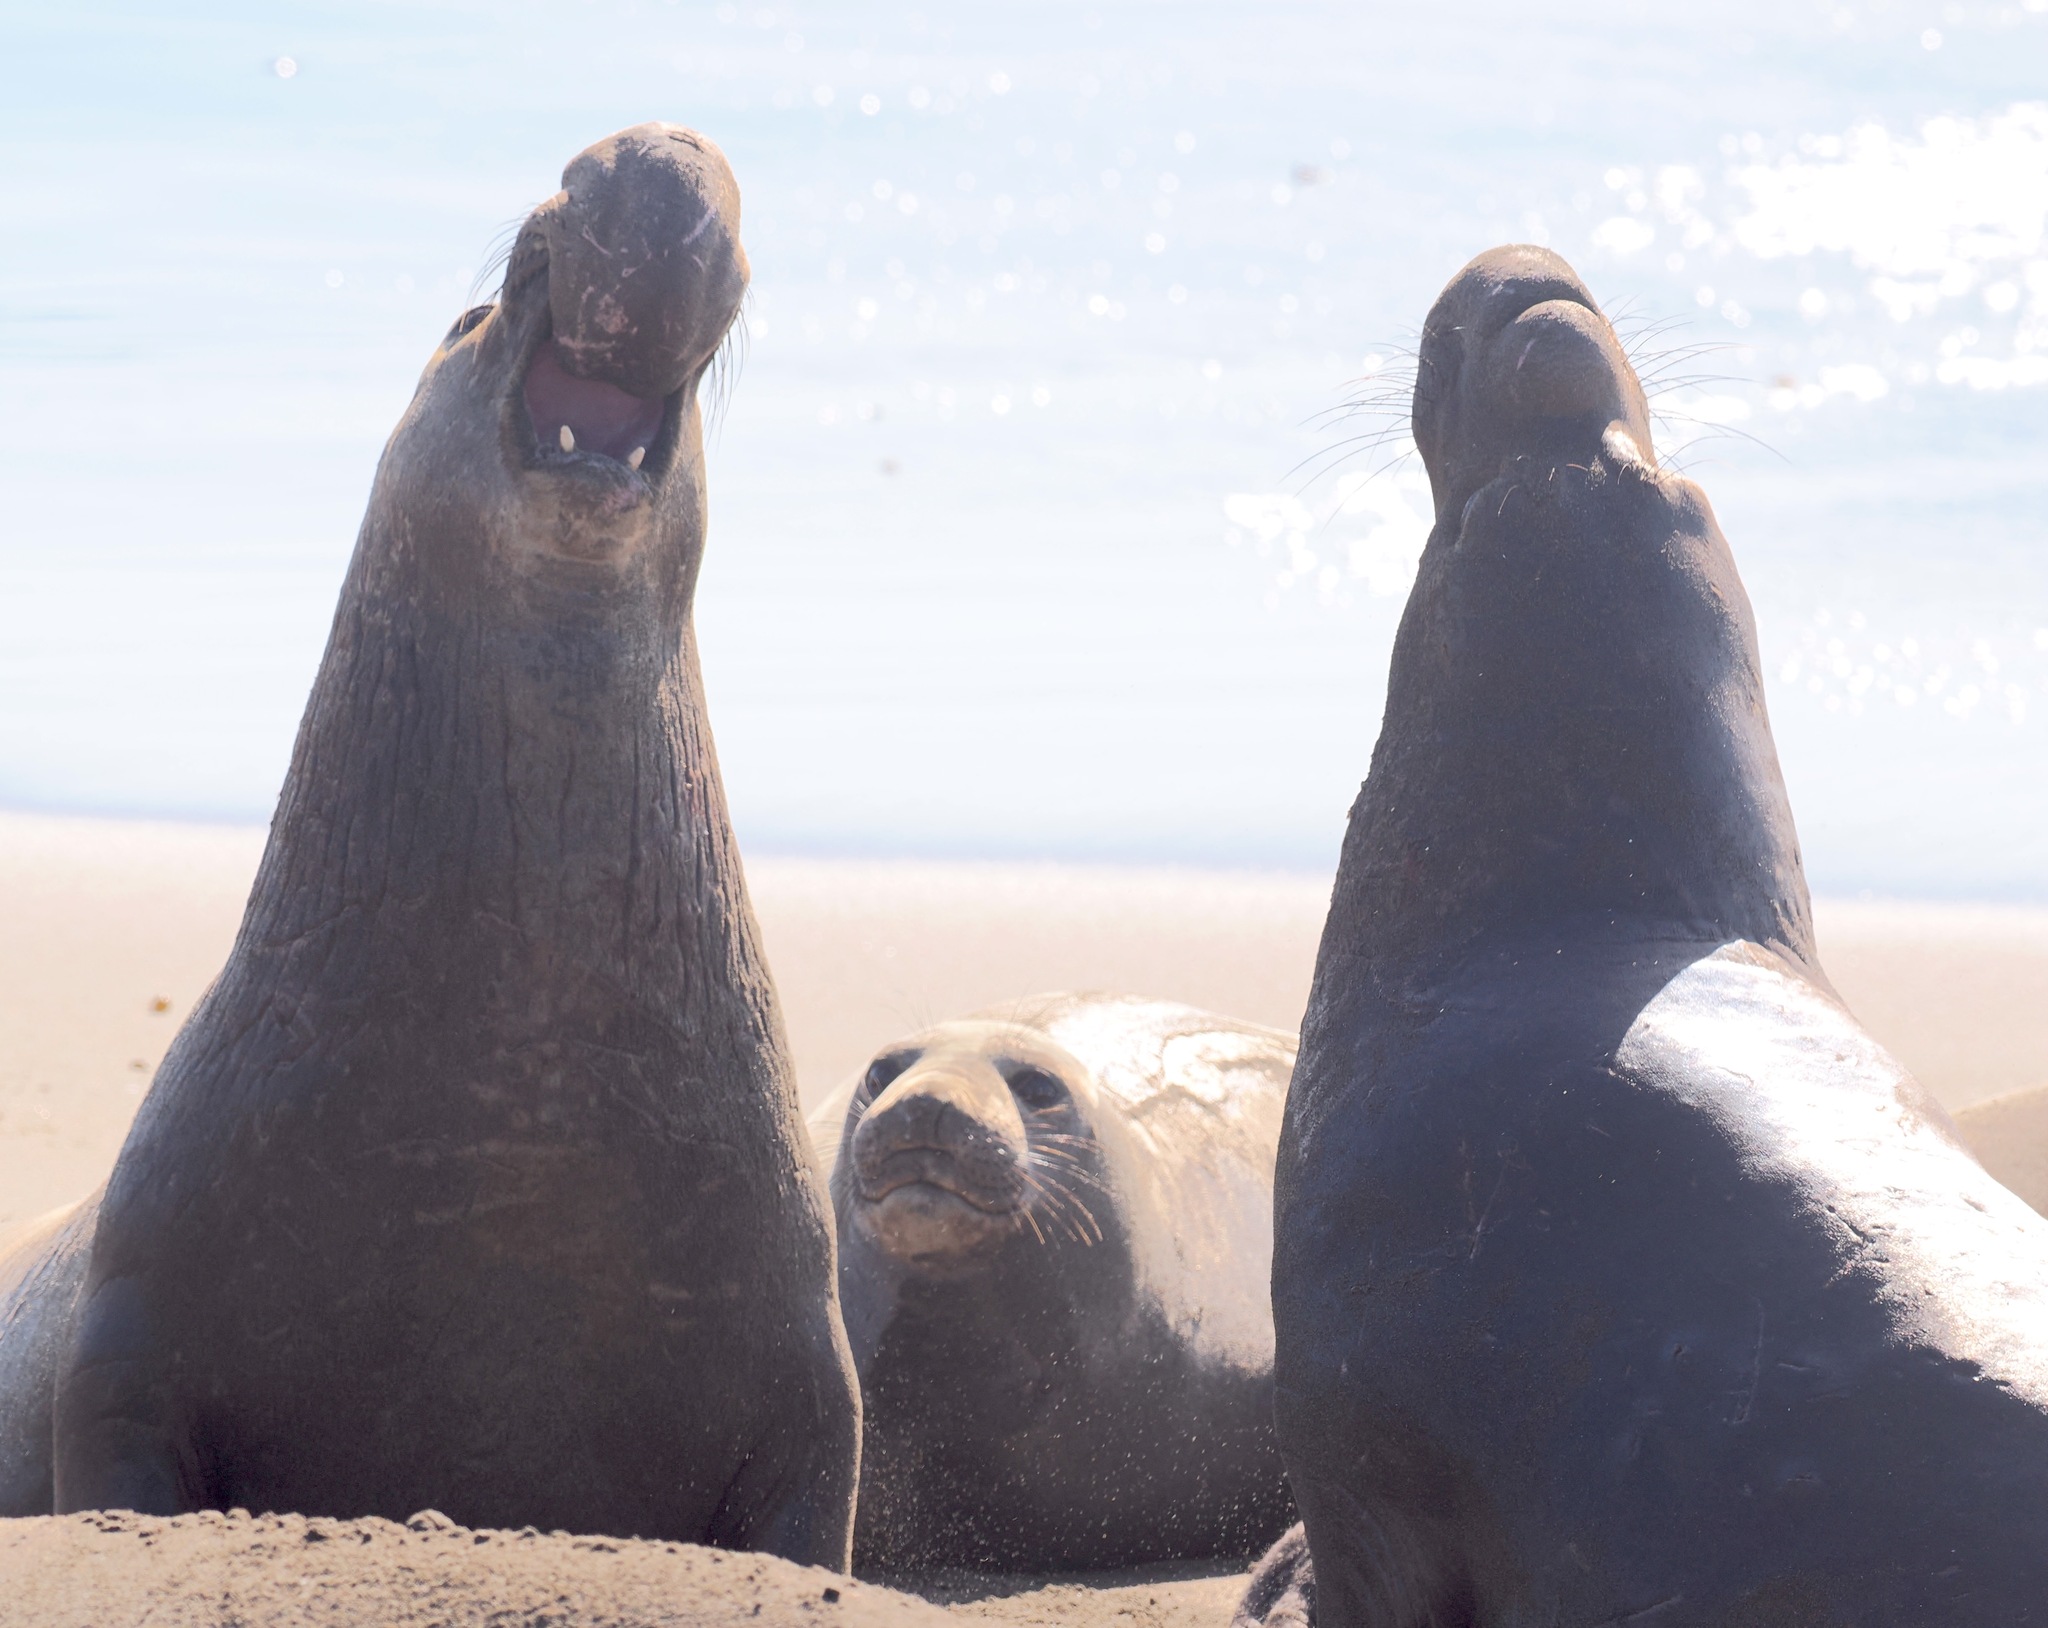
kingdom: Animalia
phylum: Chordata
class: Mammalia
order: Carnivora
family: Phocidae
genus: Mirounga
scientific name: Mirounga angustirostris
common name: Northern elephant seal
